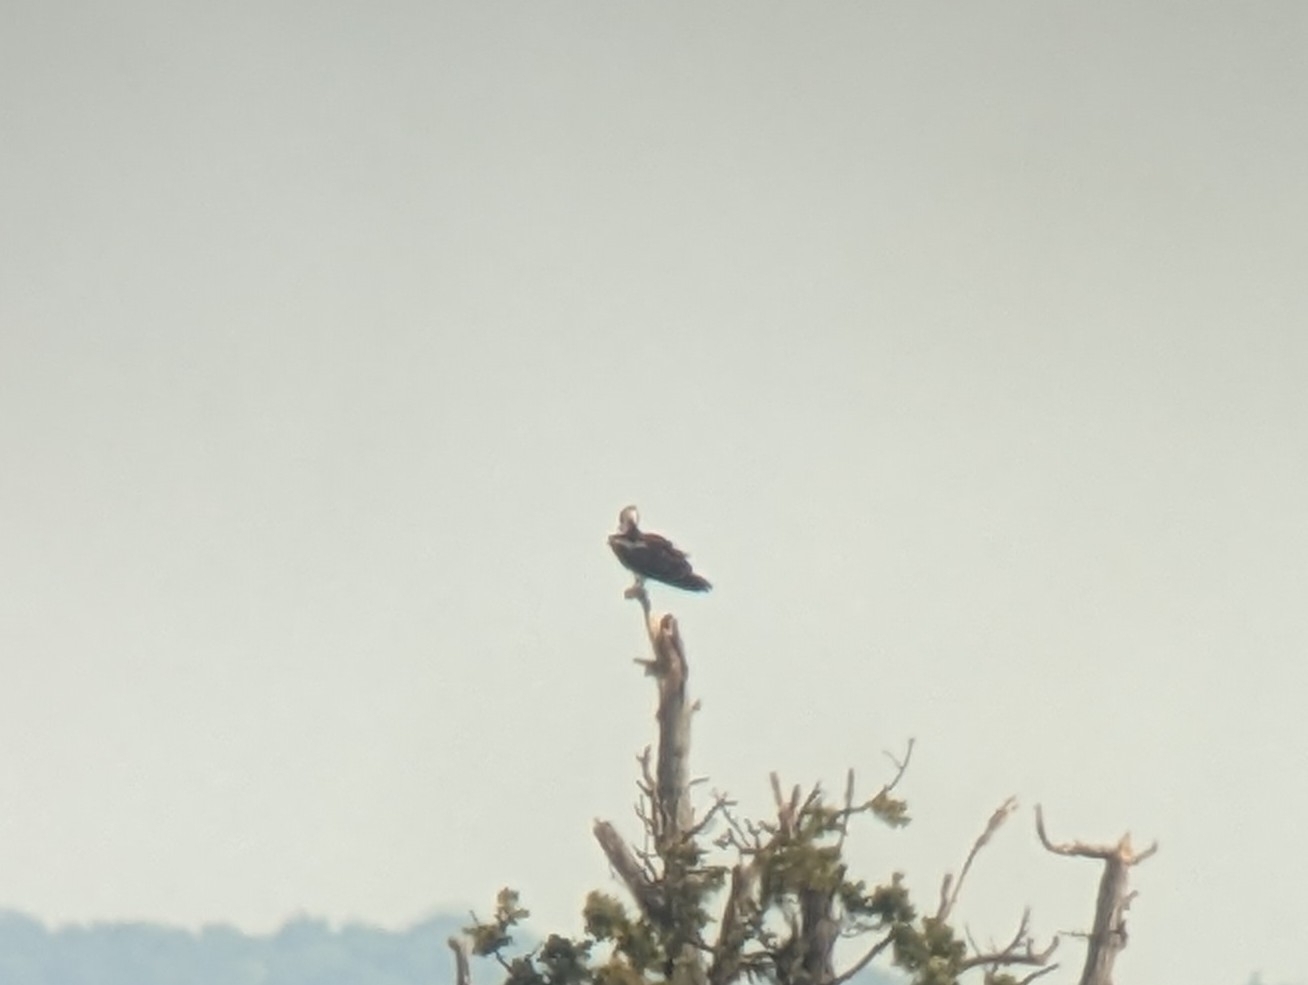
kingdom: Animalia
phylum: Chordata
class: Aves
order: Accipitriformes
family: Pandionidae
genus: Pandion
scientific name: Pandion haliaetus
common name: Osprey
